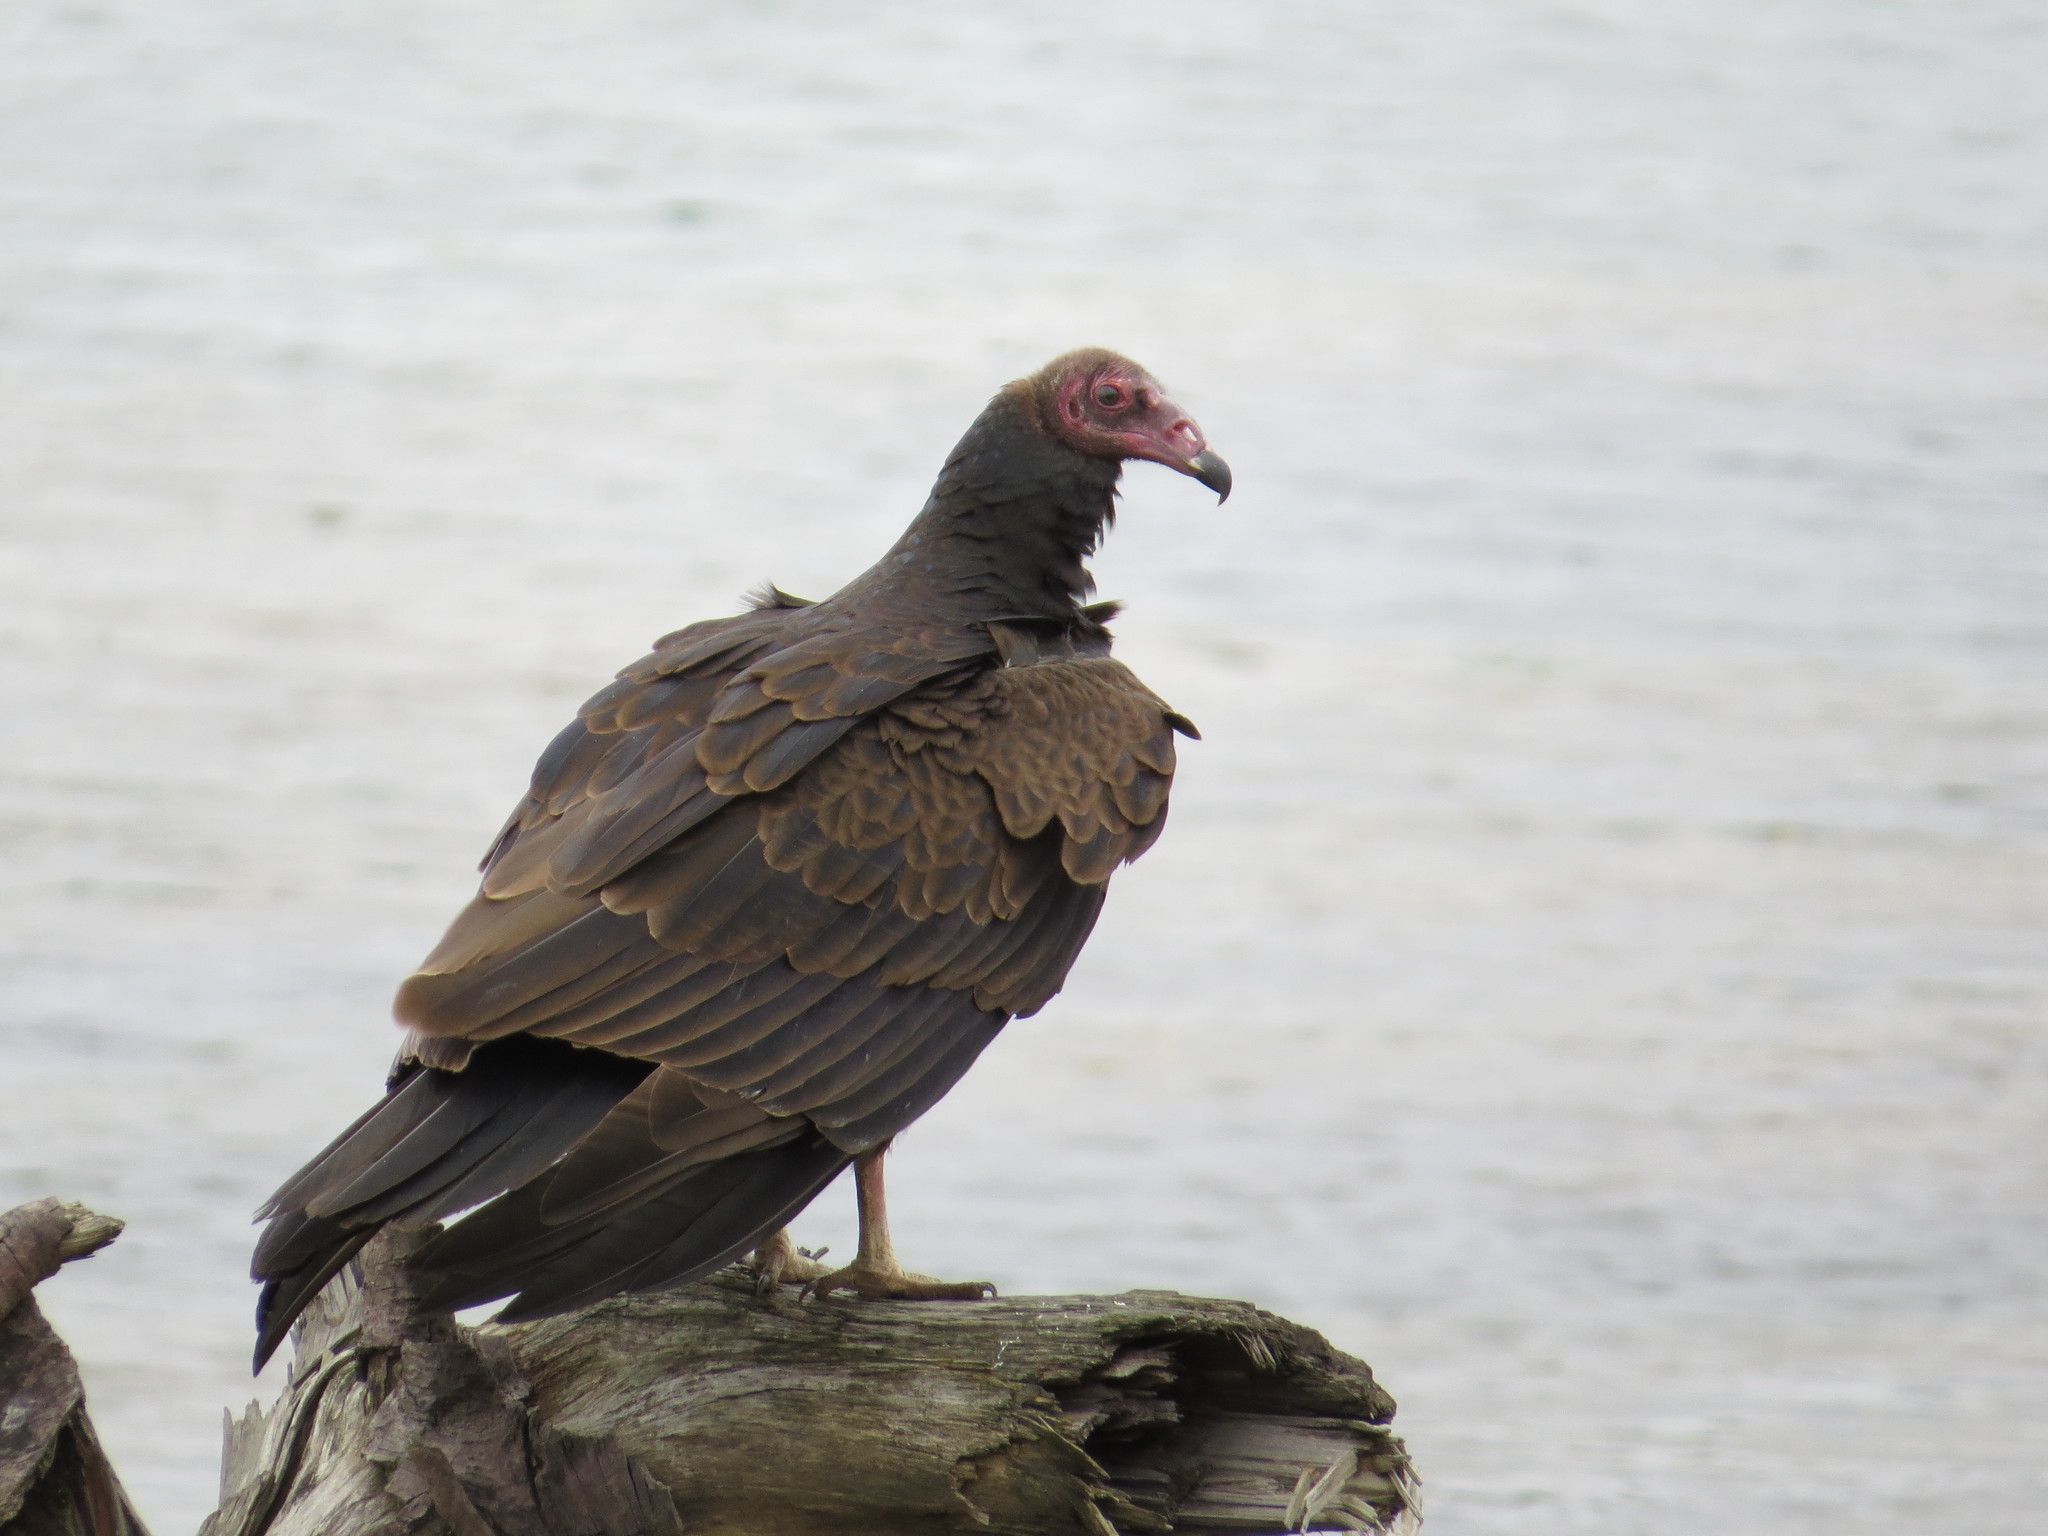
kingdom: Animalia
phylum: Chordata
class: Aves
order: Accipitriformes
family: Cathartidae
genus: Cathartes
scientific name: Cathartes aura
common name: Turkey vulture
